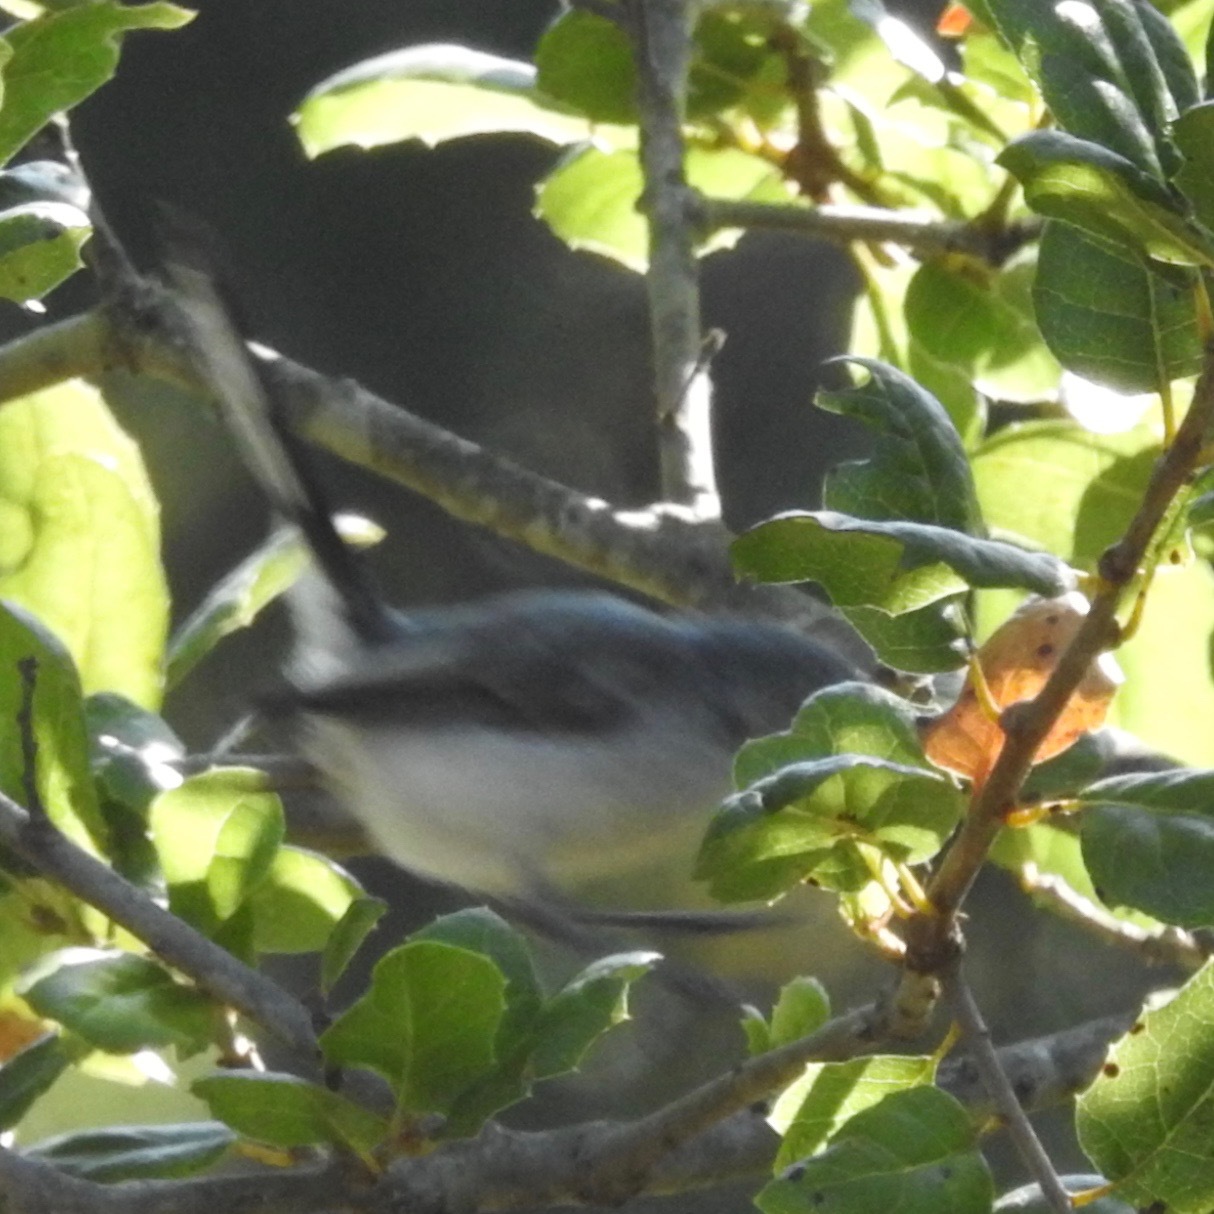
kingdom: Animalia
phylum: Chordata
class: Aves
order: Passeriformes
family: Polioptilidae
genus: Polioptila
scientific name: Polioptila caerulea
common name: Blue-gray gnatcatcher
